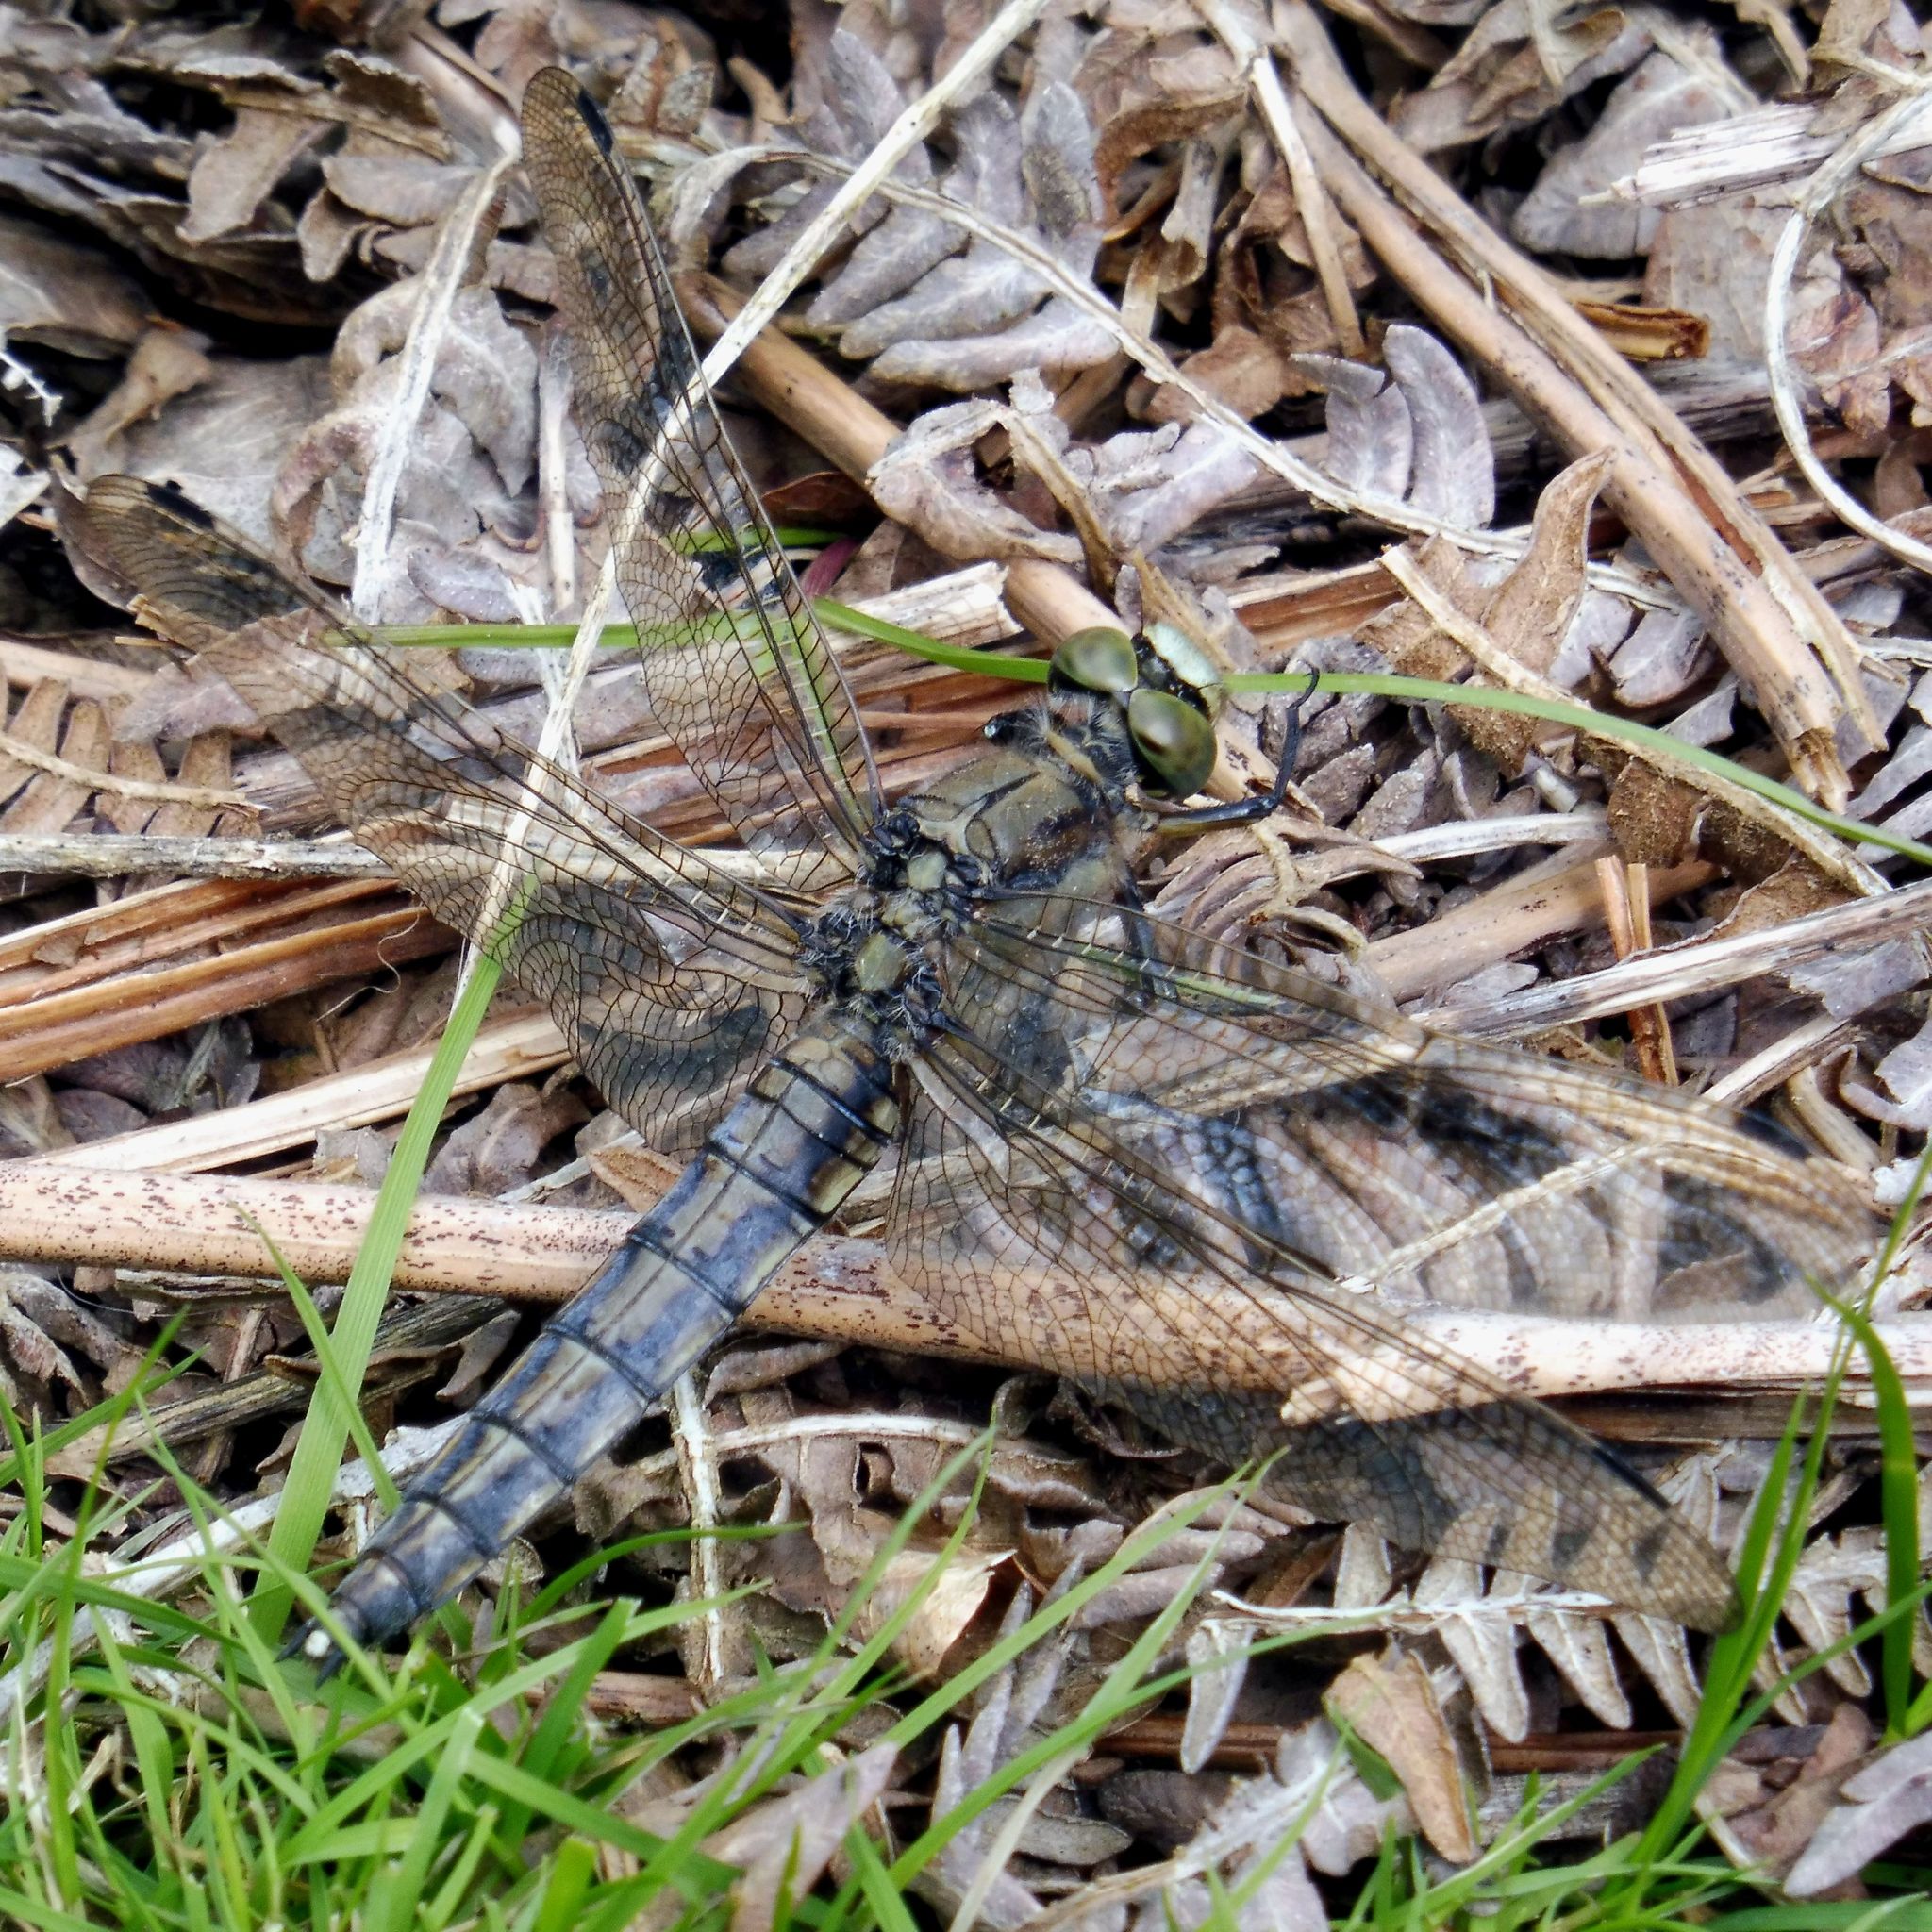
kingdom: Animalia
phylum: Arthropoda
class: Insecta
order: Odonata
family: Libellulidae
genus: Orthetrum
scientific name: Orthetrum cancellatum
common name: Black-tailed skimmer
